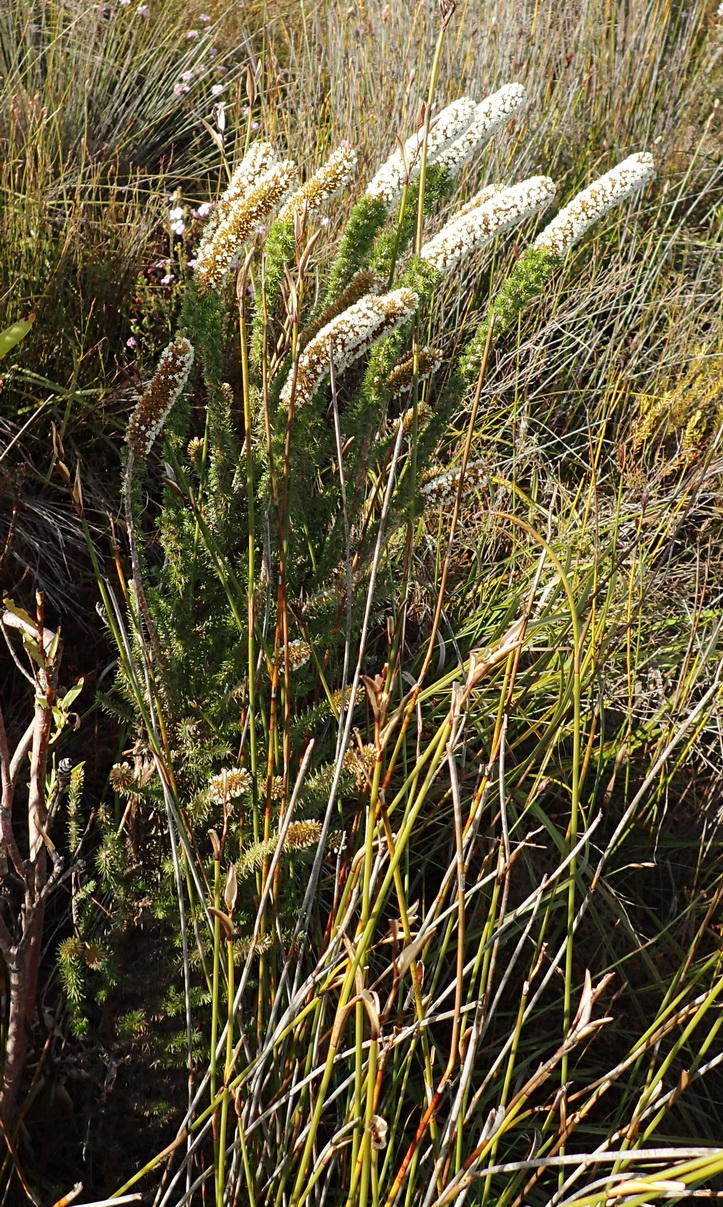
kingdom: Plantae
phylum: Tracheophyta
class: Magnoliopsida
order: Asterales
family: Asteraceae
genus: Stoebe
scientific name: Stoebe alopecuroides
